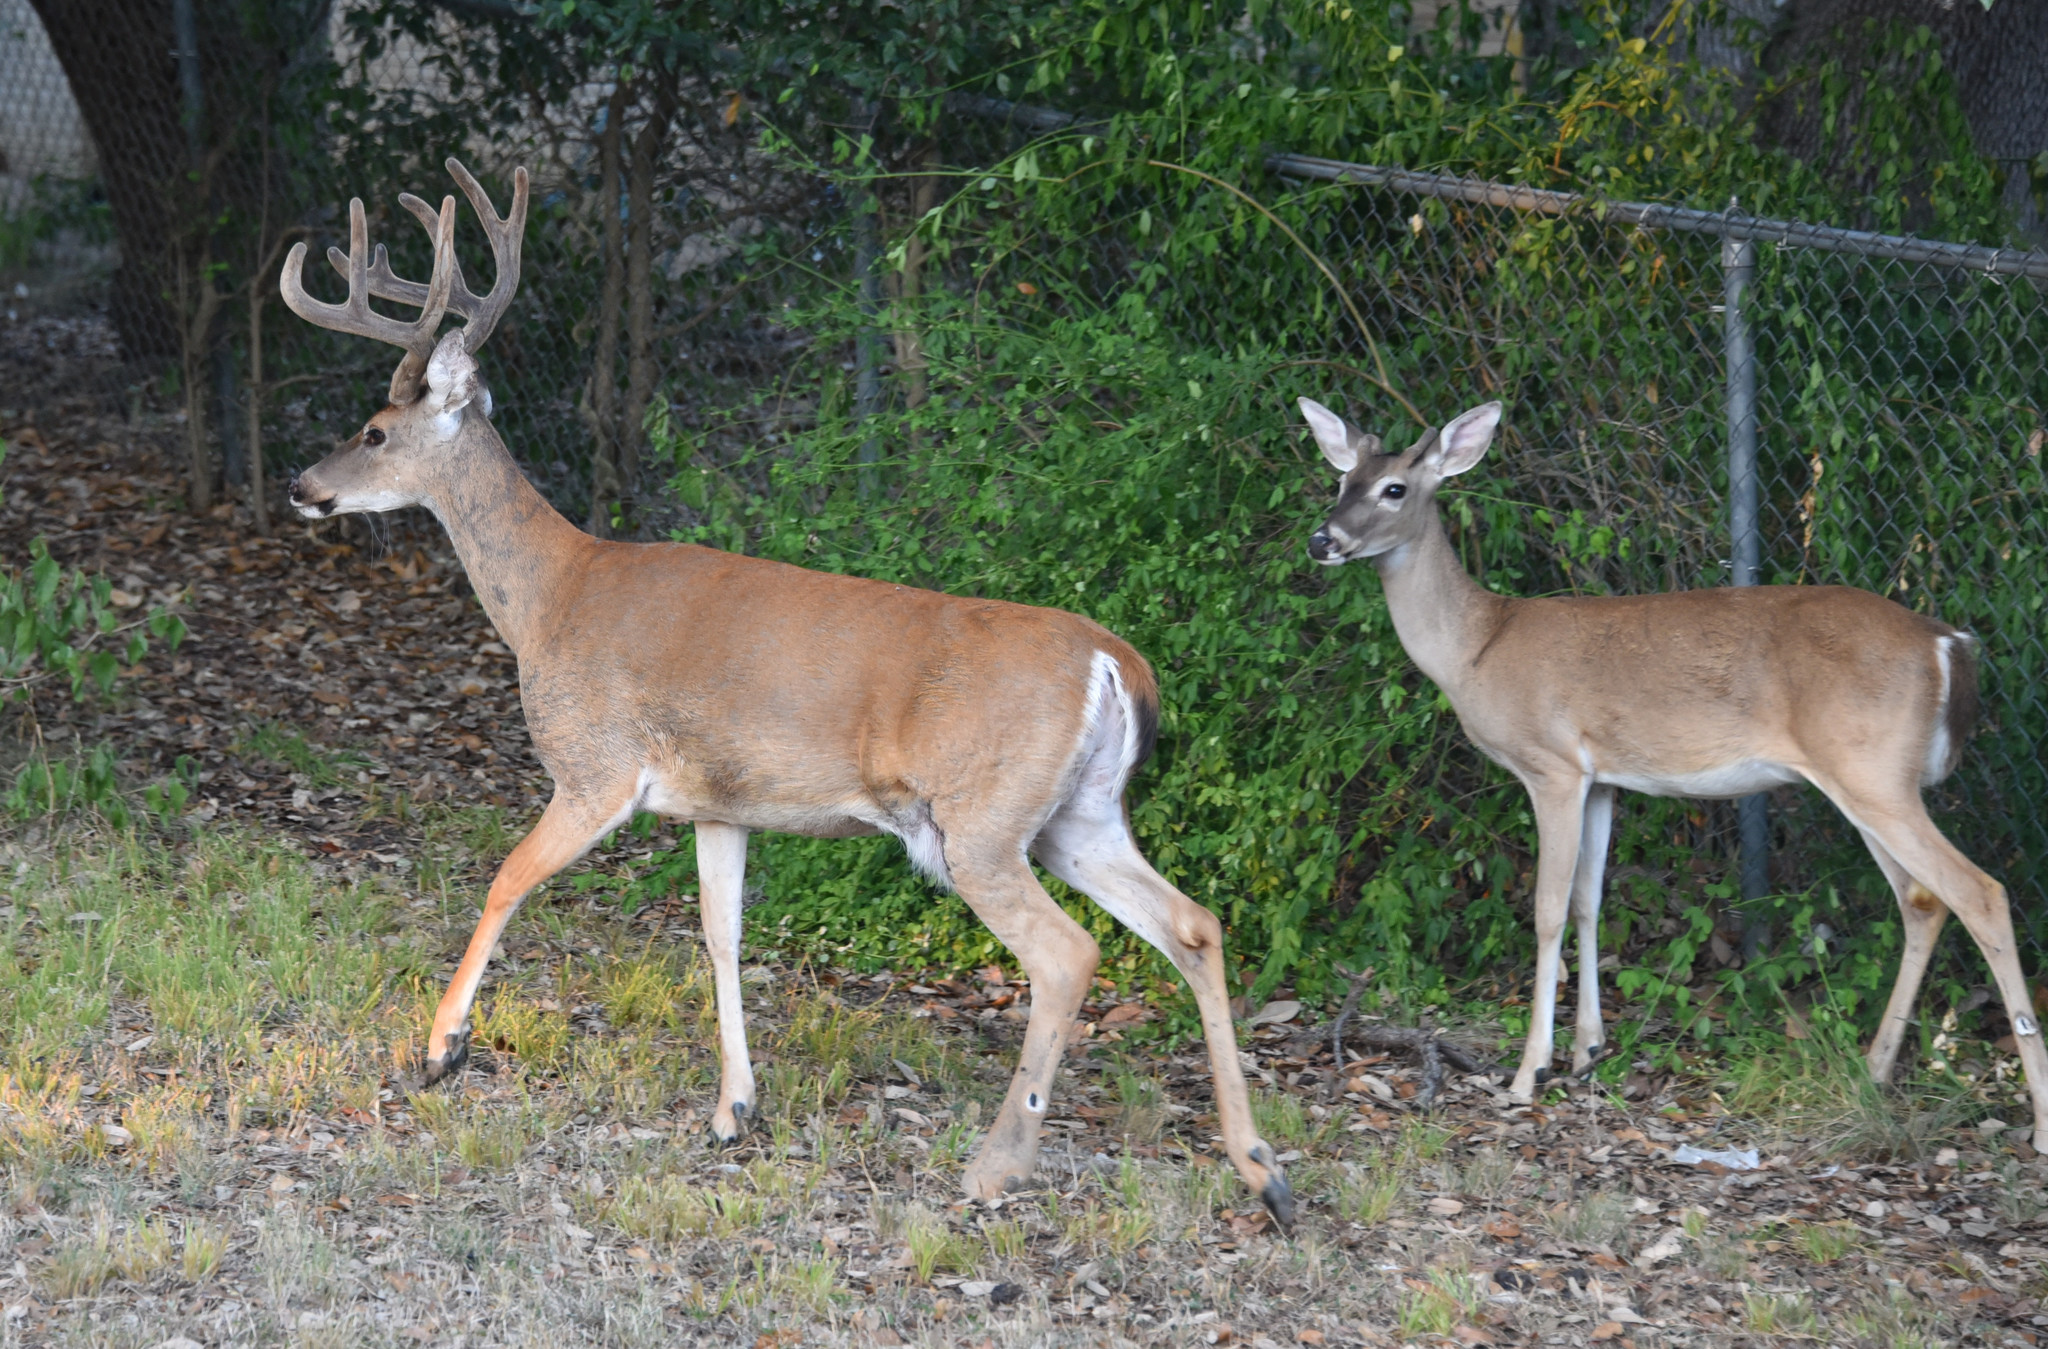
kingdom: Animalia
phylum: Chordata
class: Mammalia
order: Artiodactyla
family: Cervidae
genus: Odocoileus
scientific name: Odocoileus virginianus
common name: White-tailed deer
